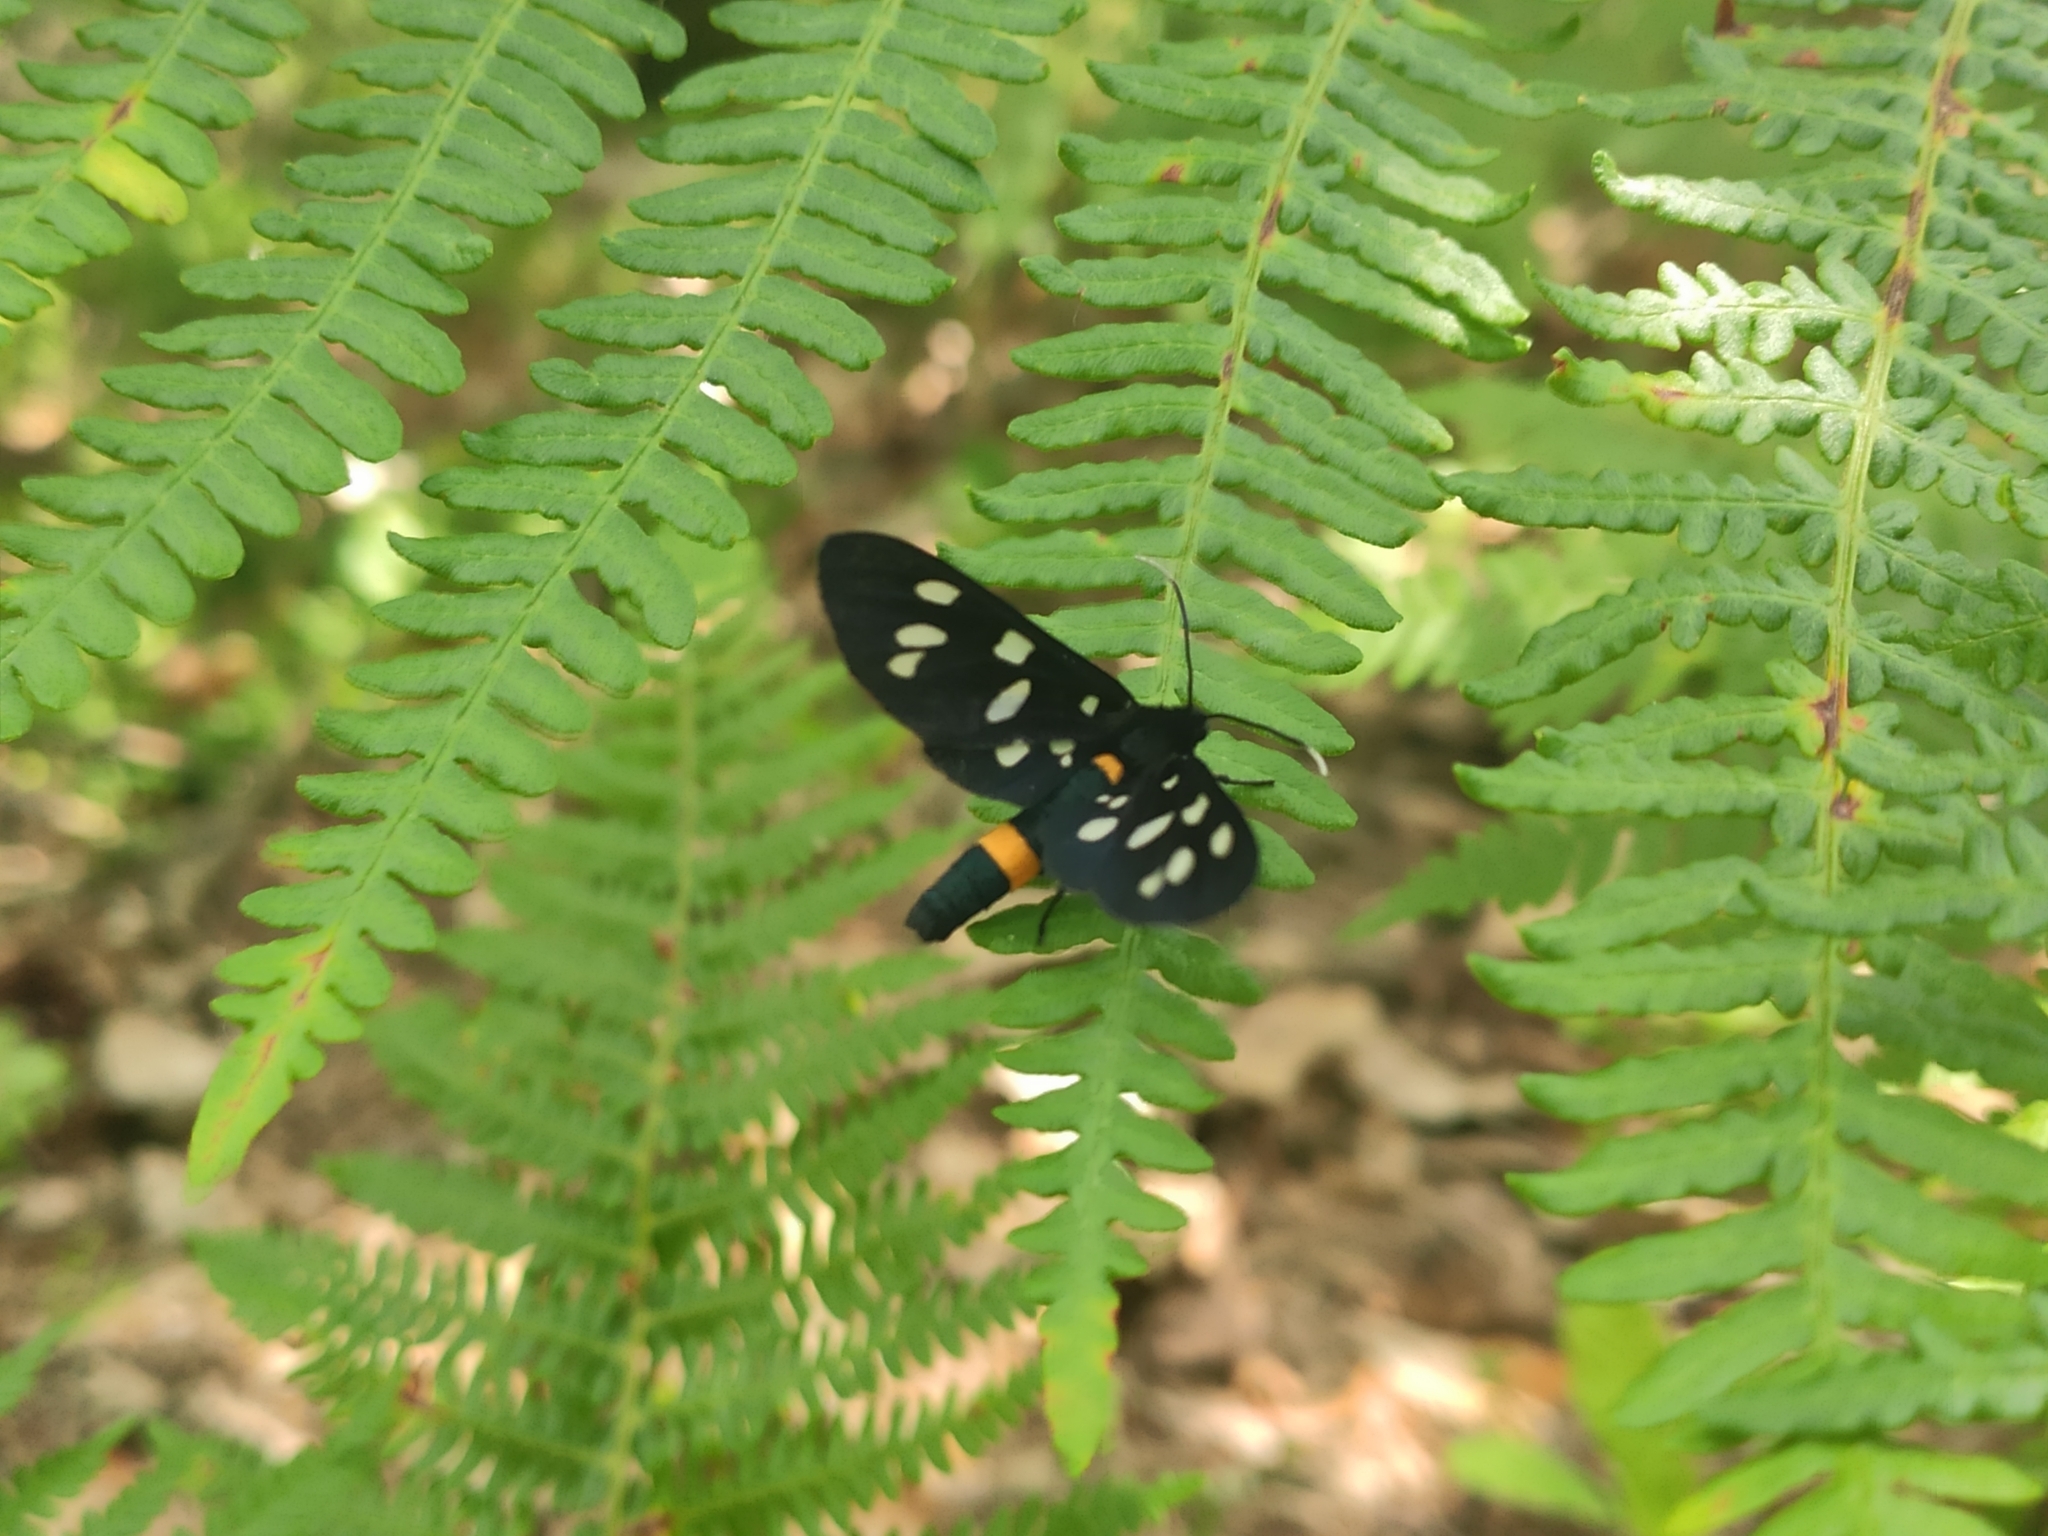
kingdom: Animalia
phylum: Arthropoda
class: Insecta
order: Lepidoptera
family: Erebidae
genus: Amata
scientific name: Amata phegea
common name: Nine-spotted
